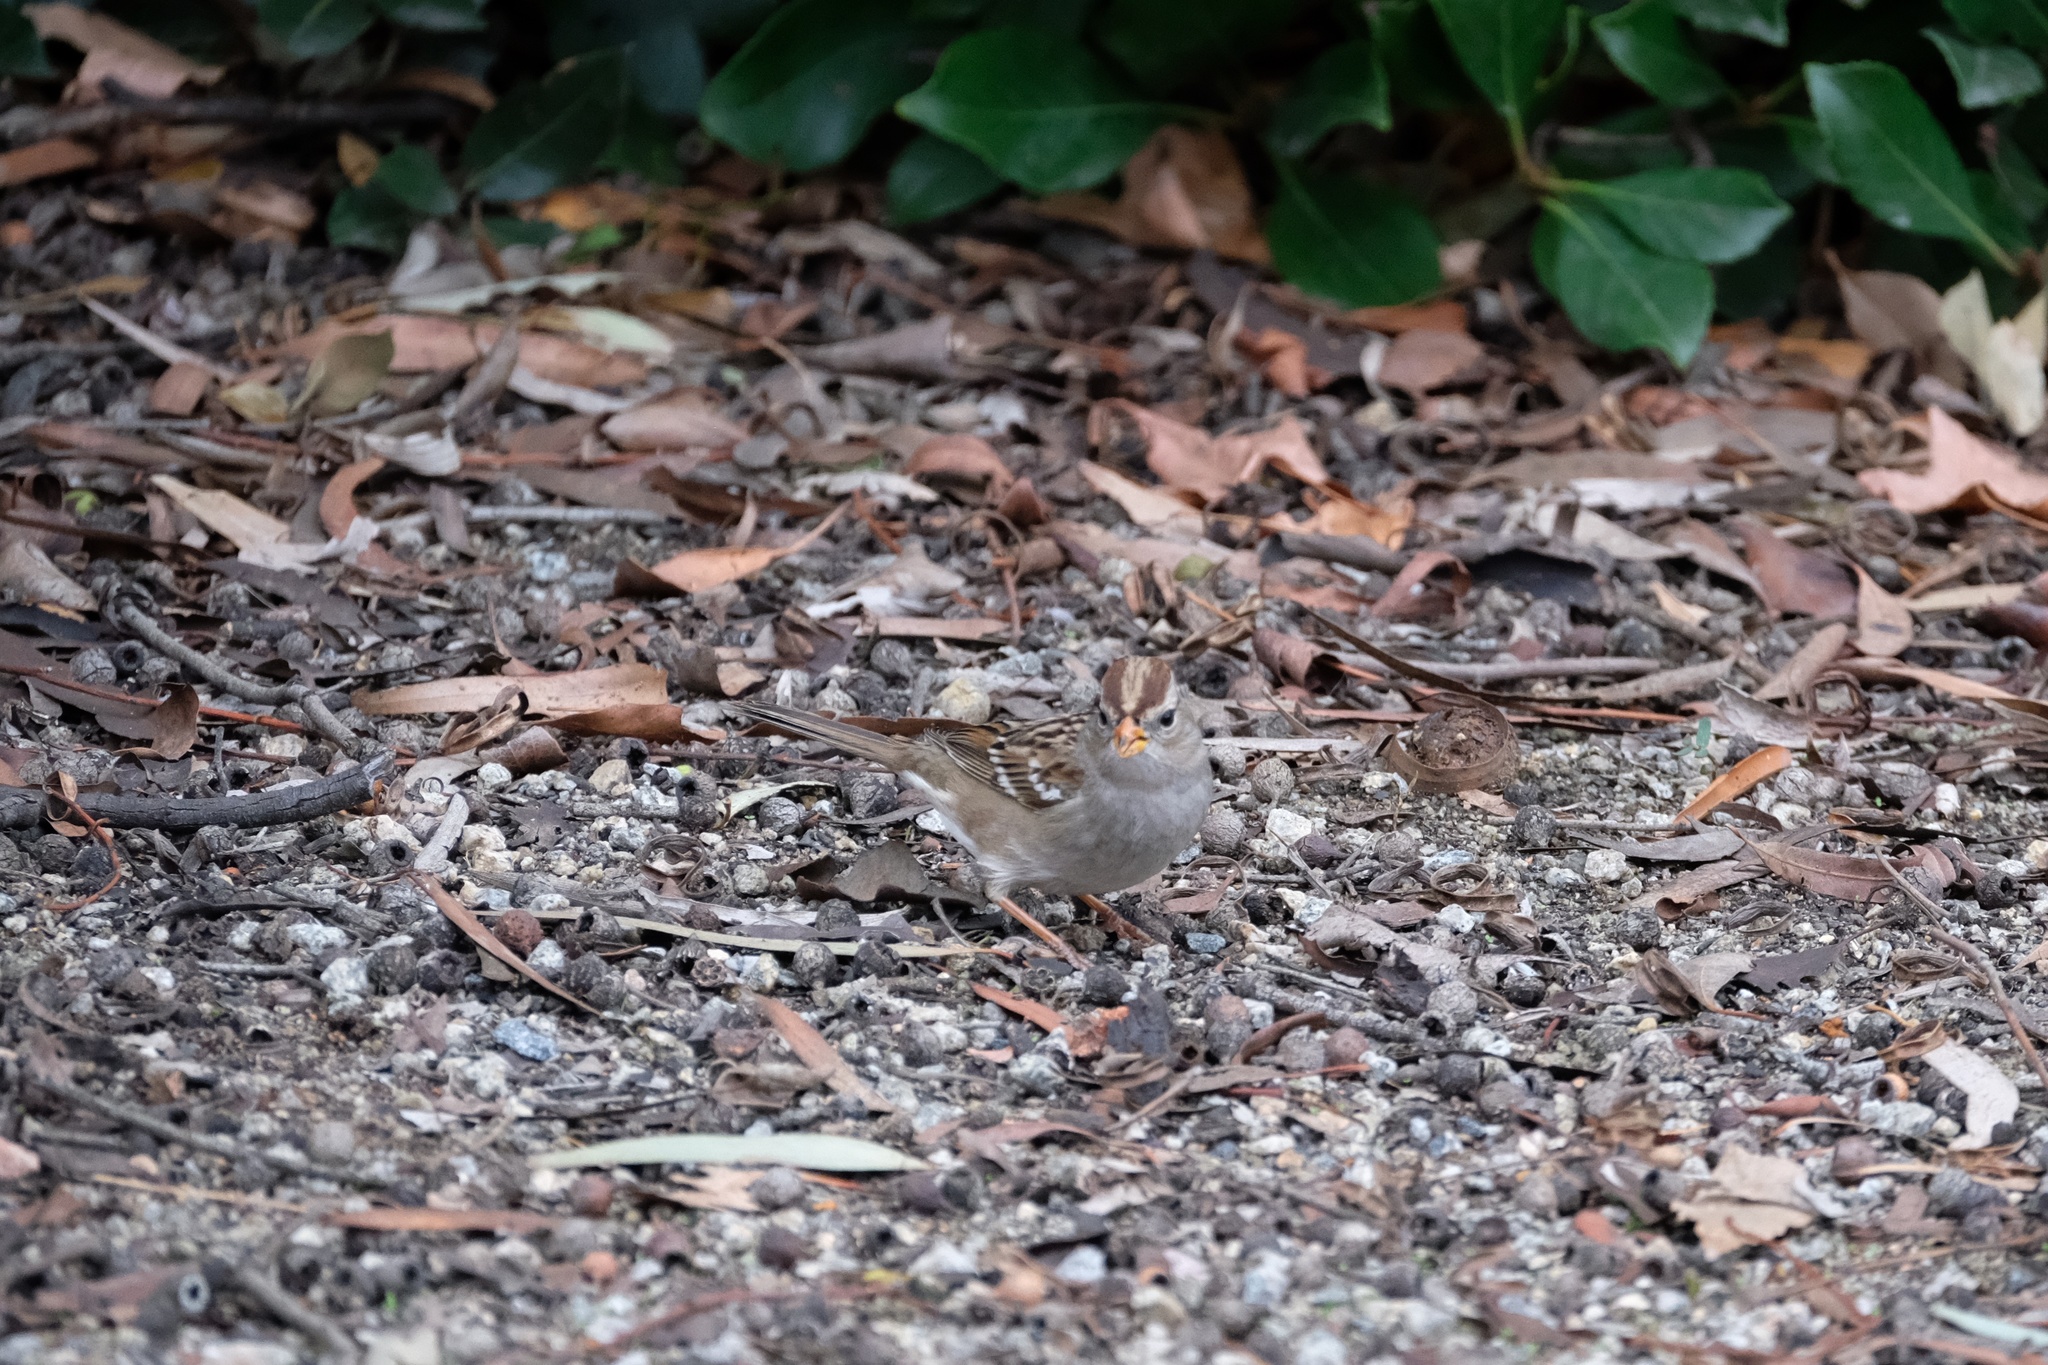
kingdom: Animalia
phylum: Chordata
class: Aves
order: Passeriformes
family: Passerellidae
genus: Zonotrichia
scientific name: Zonotrichia leucophrys
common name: White-crowned sparrow
